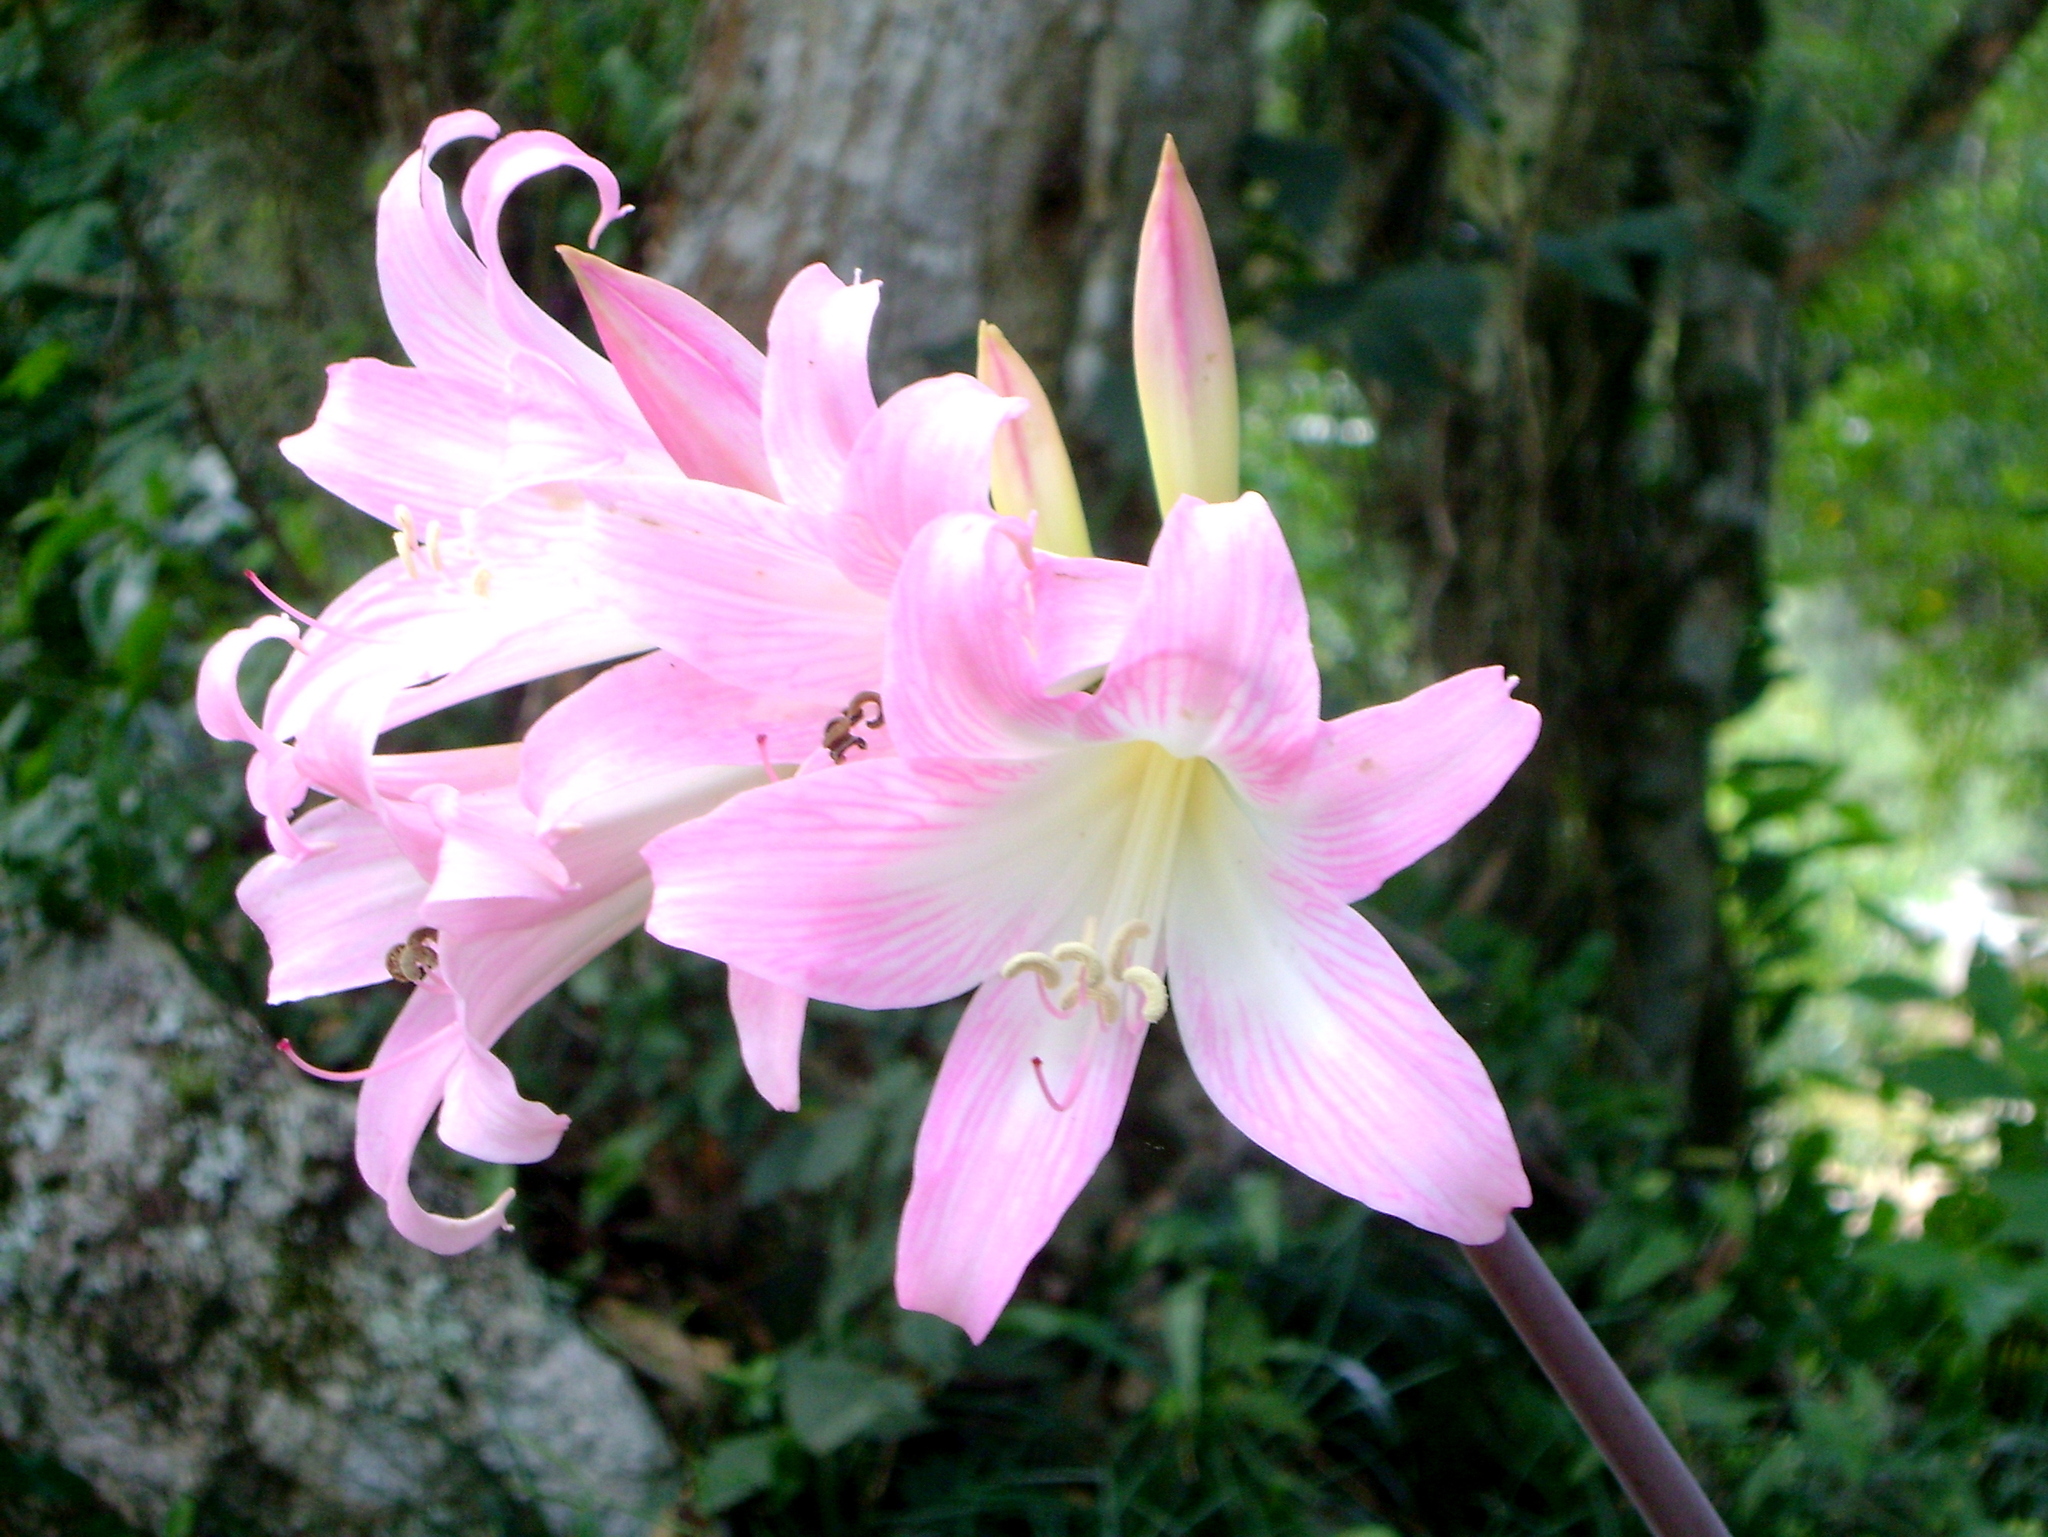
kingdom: Plantae
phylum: Tracheophyta
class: Liliopsida
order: Asparagales
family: Amaryllidaceae
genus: Amaryllis
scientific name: Amaryllis belladonna
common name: Jersey lily
